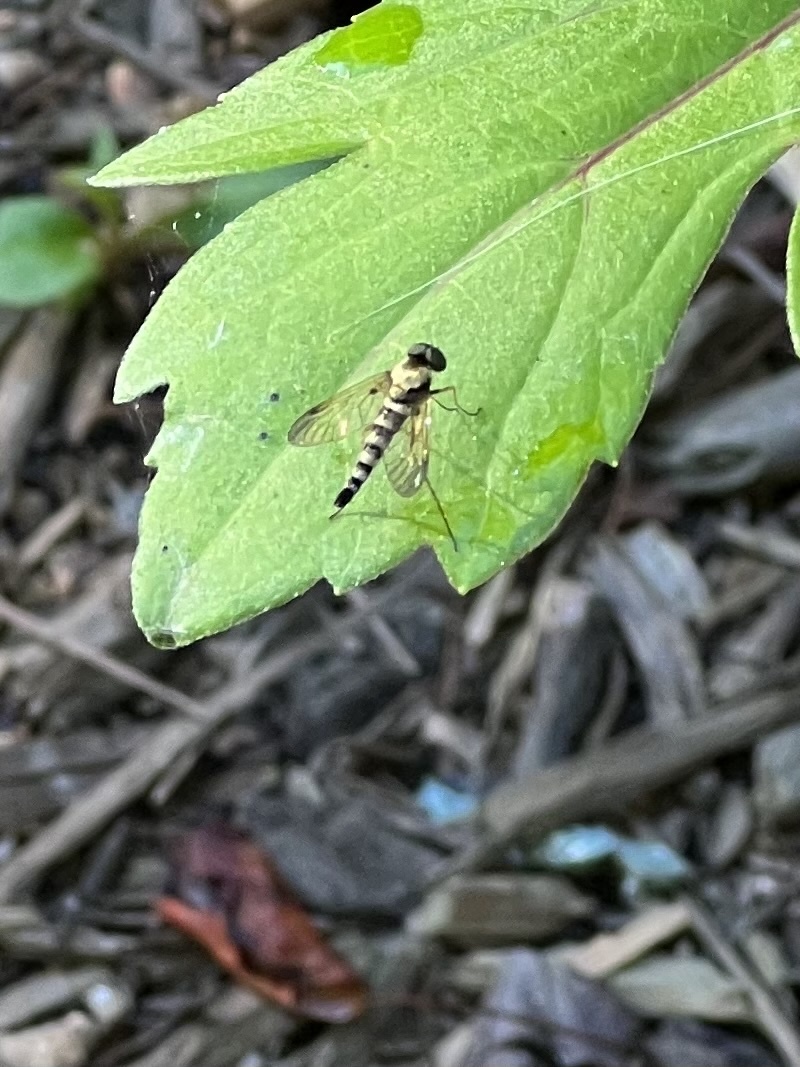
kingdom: Animalia
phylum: Arthropoda
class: Insecta
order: Diptera
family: Rhagionidae
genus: Chrysopilus
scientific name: Chrysopilus ornatus
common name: Ornate snipe fly
